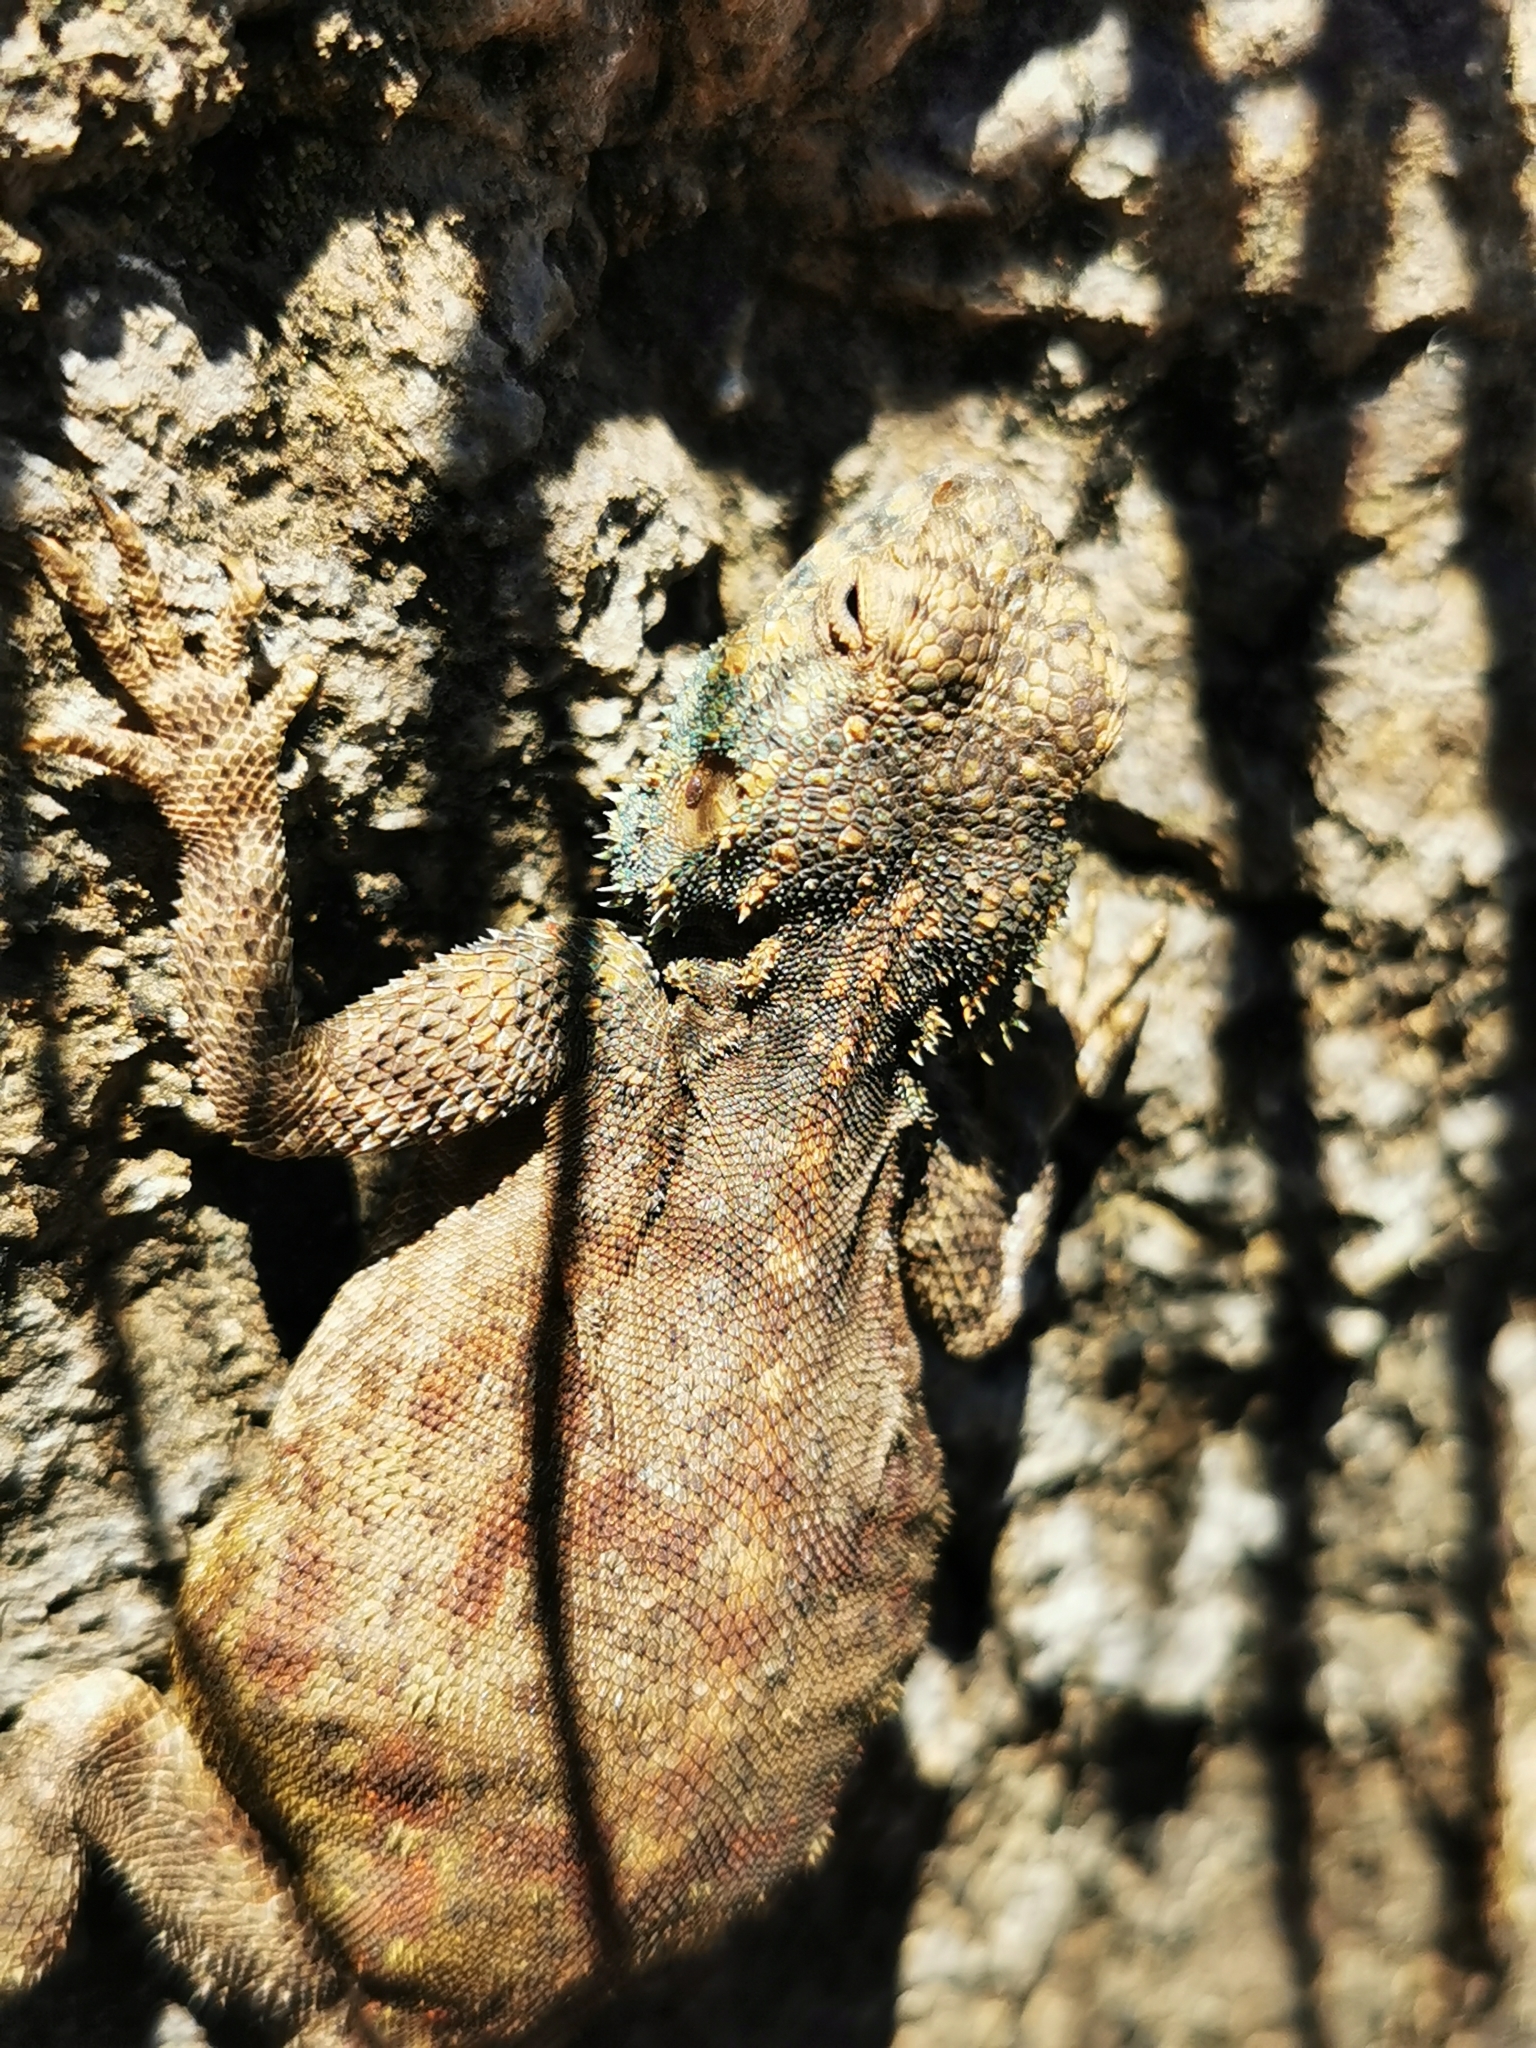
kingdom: Animalia
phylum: Chordata
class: Squamata
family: Agamidae
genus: Agama
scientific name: Agama atra
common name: Southern african rock agama
